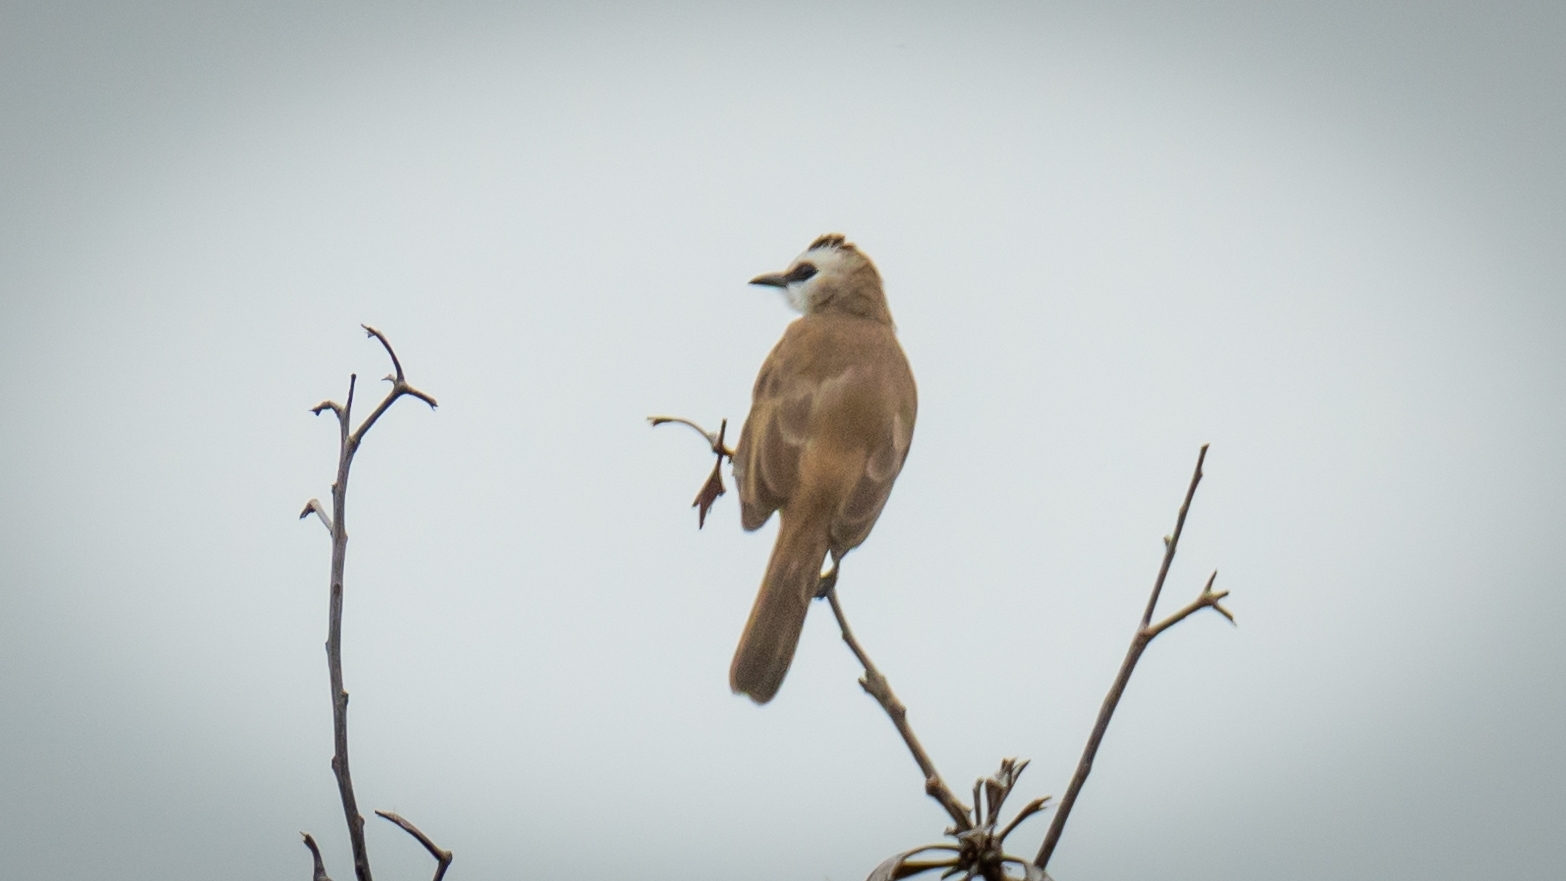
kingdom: Animalia
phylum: Chordata
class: Aves
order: Passeriformes
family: Pycnonotidae
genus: Pycnonotus
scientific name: Pycnonotus goiavier
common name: Yellow-vented bulbul
